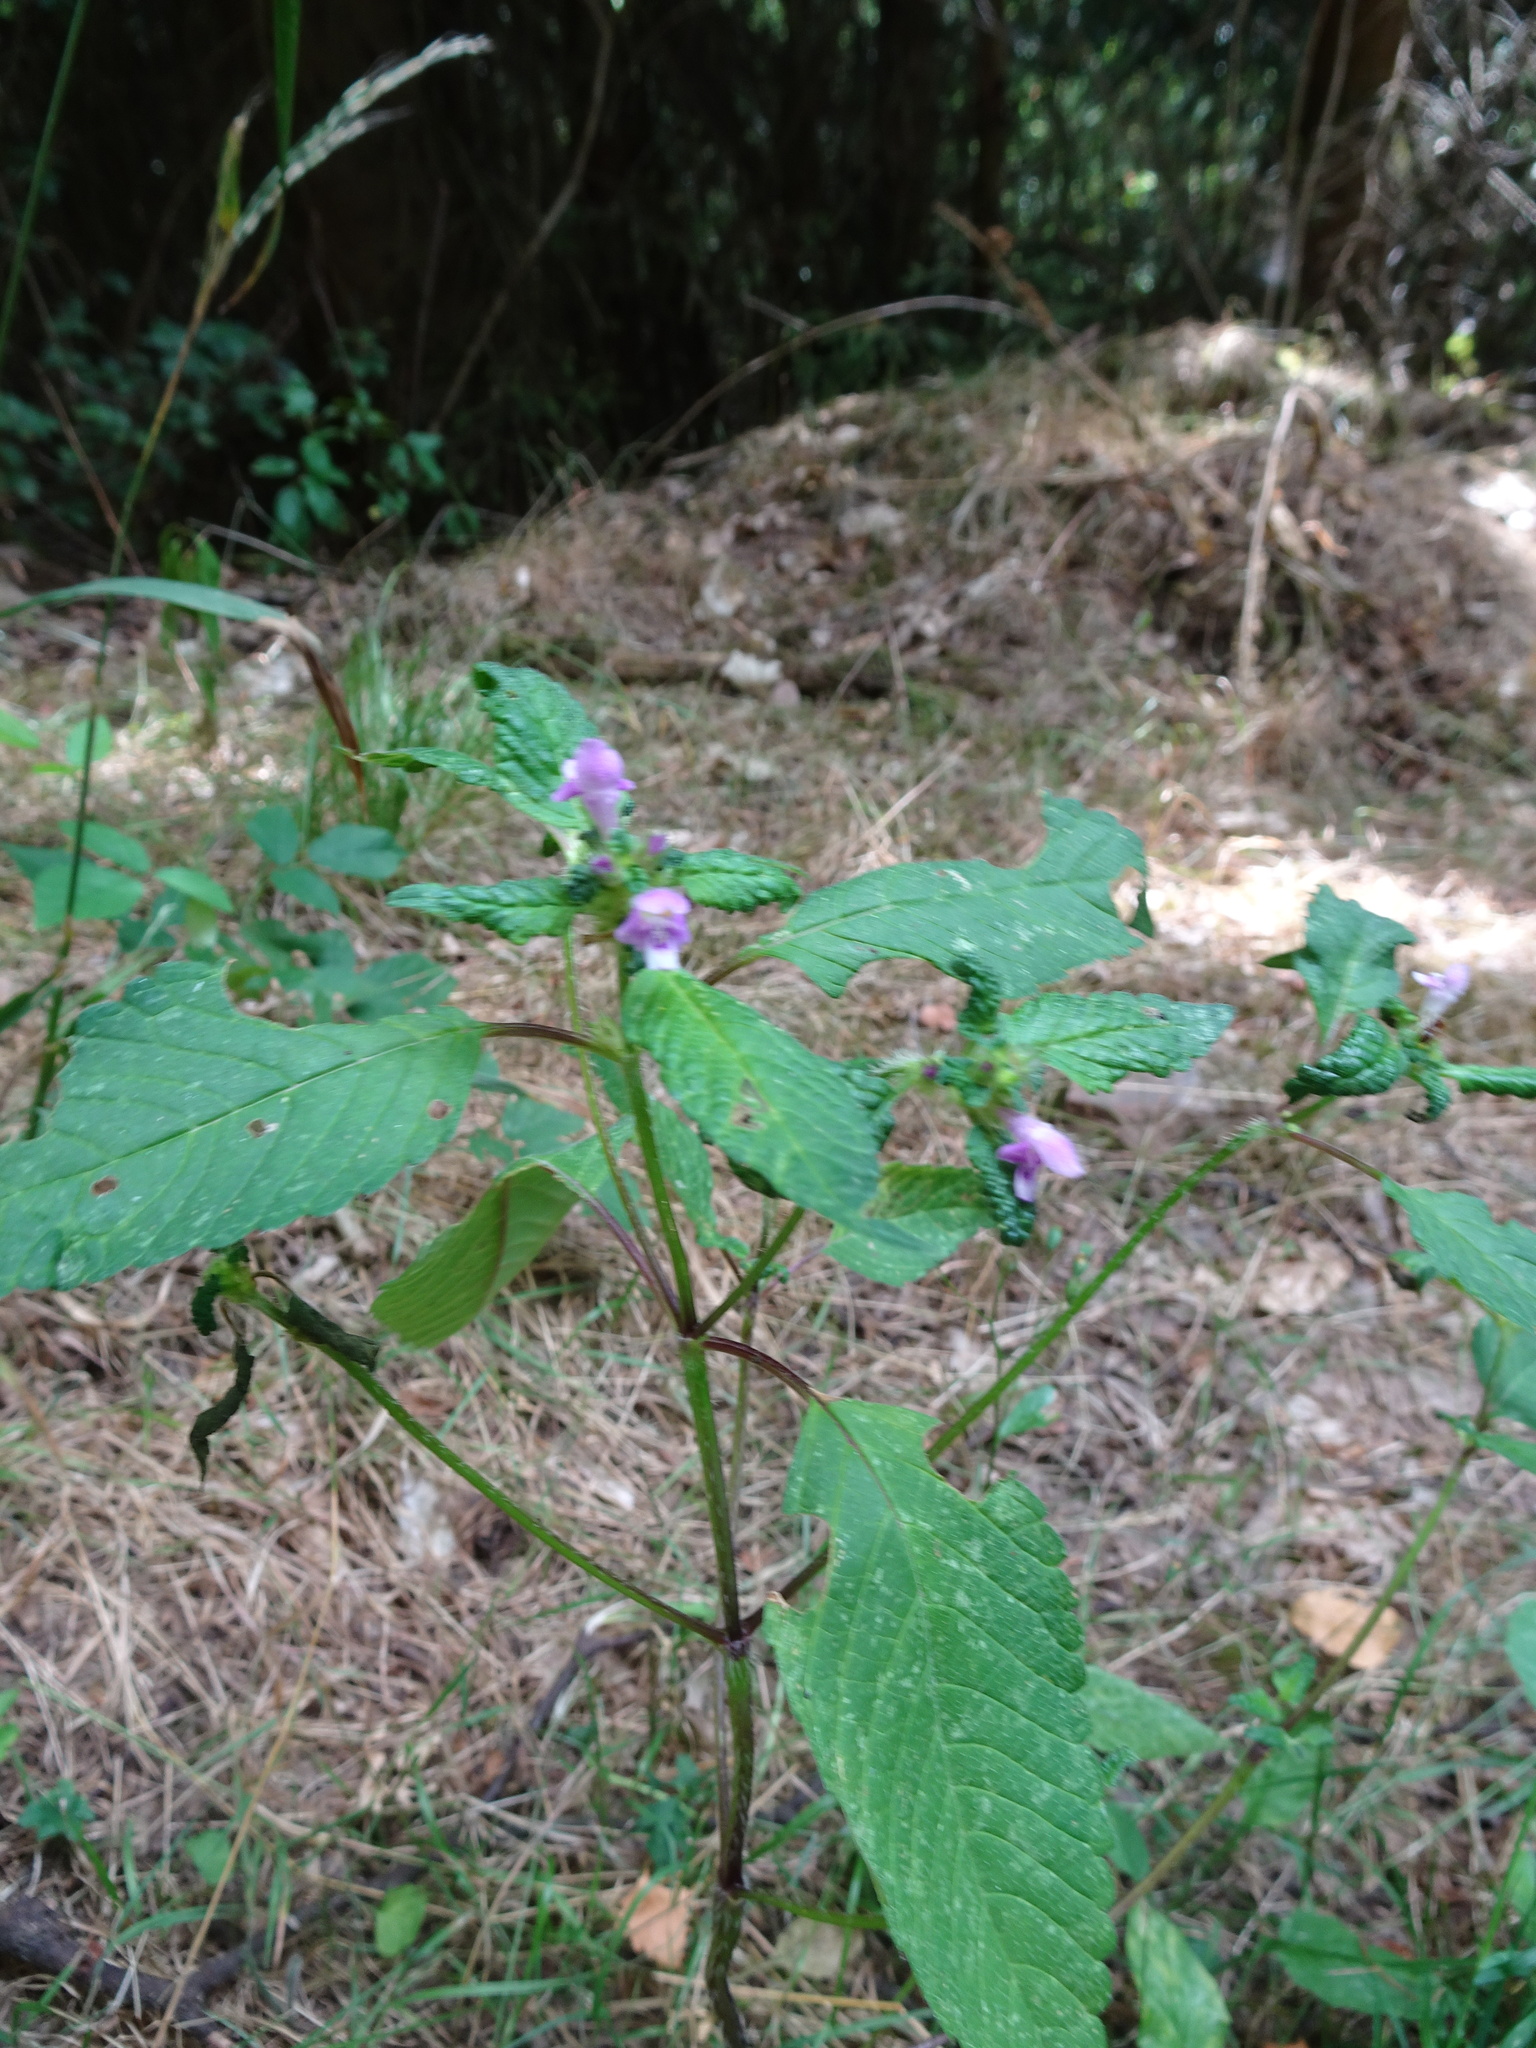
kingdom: Plantae
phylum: Tracheophyta
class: Magnoliopsida
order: Lamiales
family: Lamiaceae
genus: Galeopsis
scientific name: Galeopsis tetrahit
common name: Common hemp-nettle
